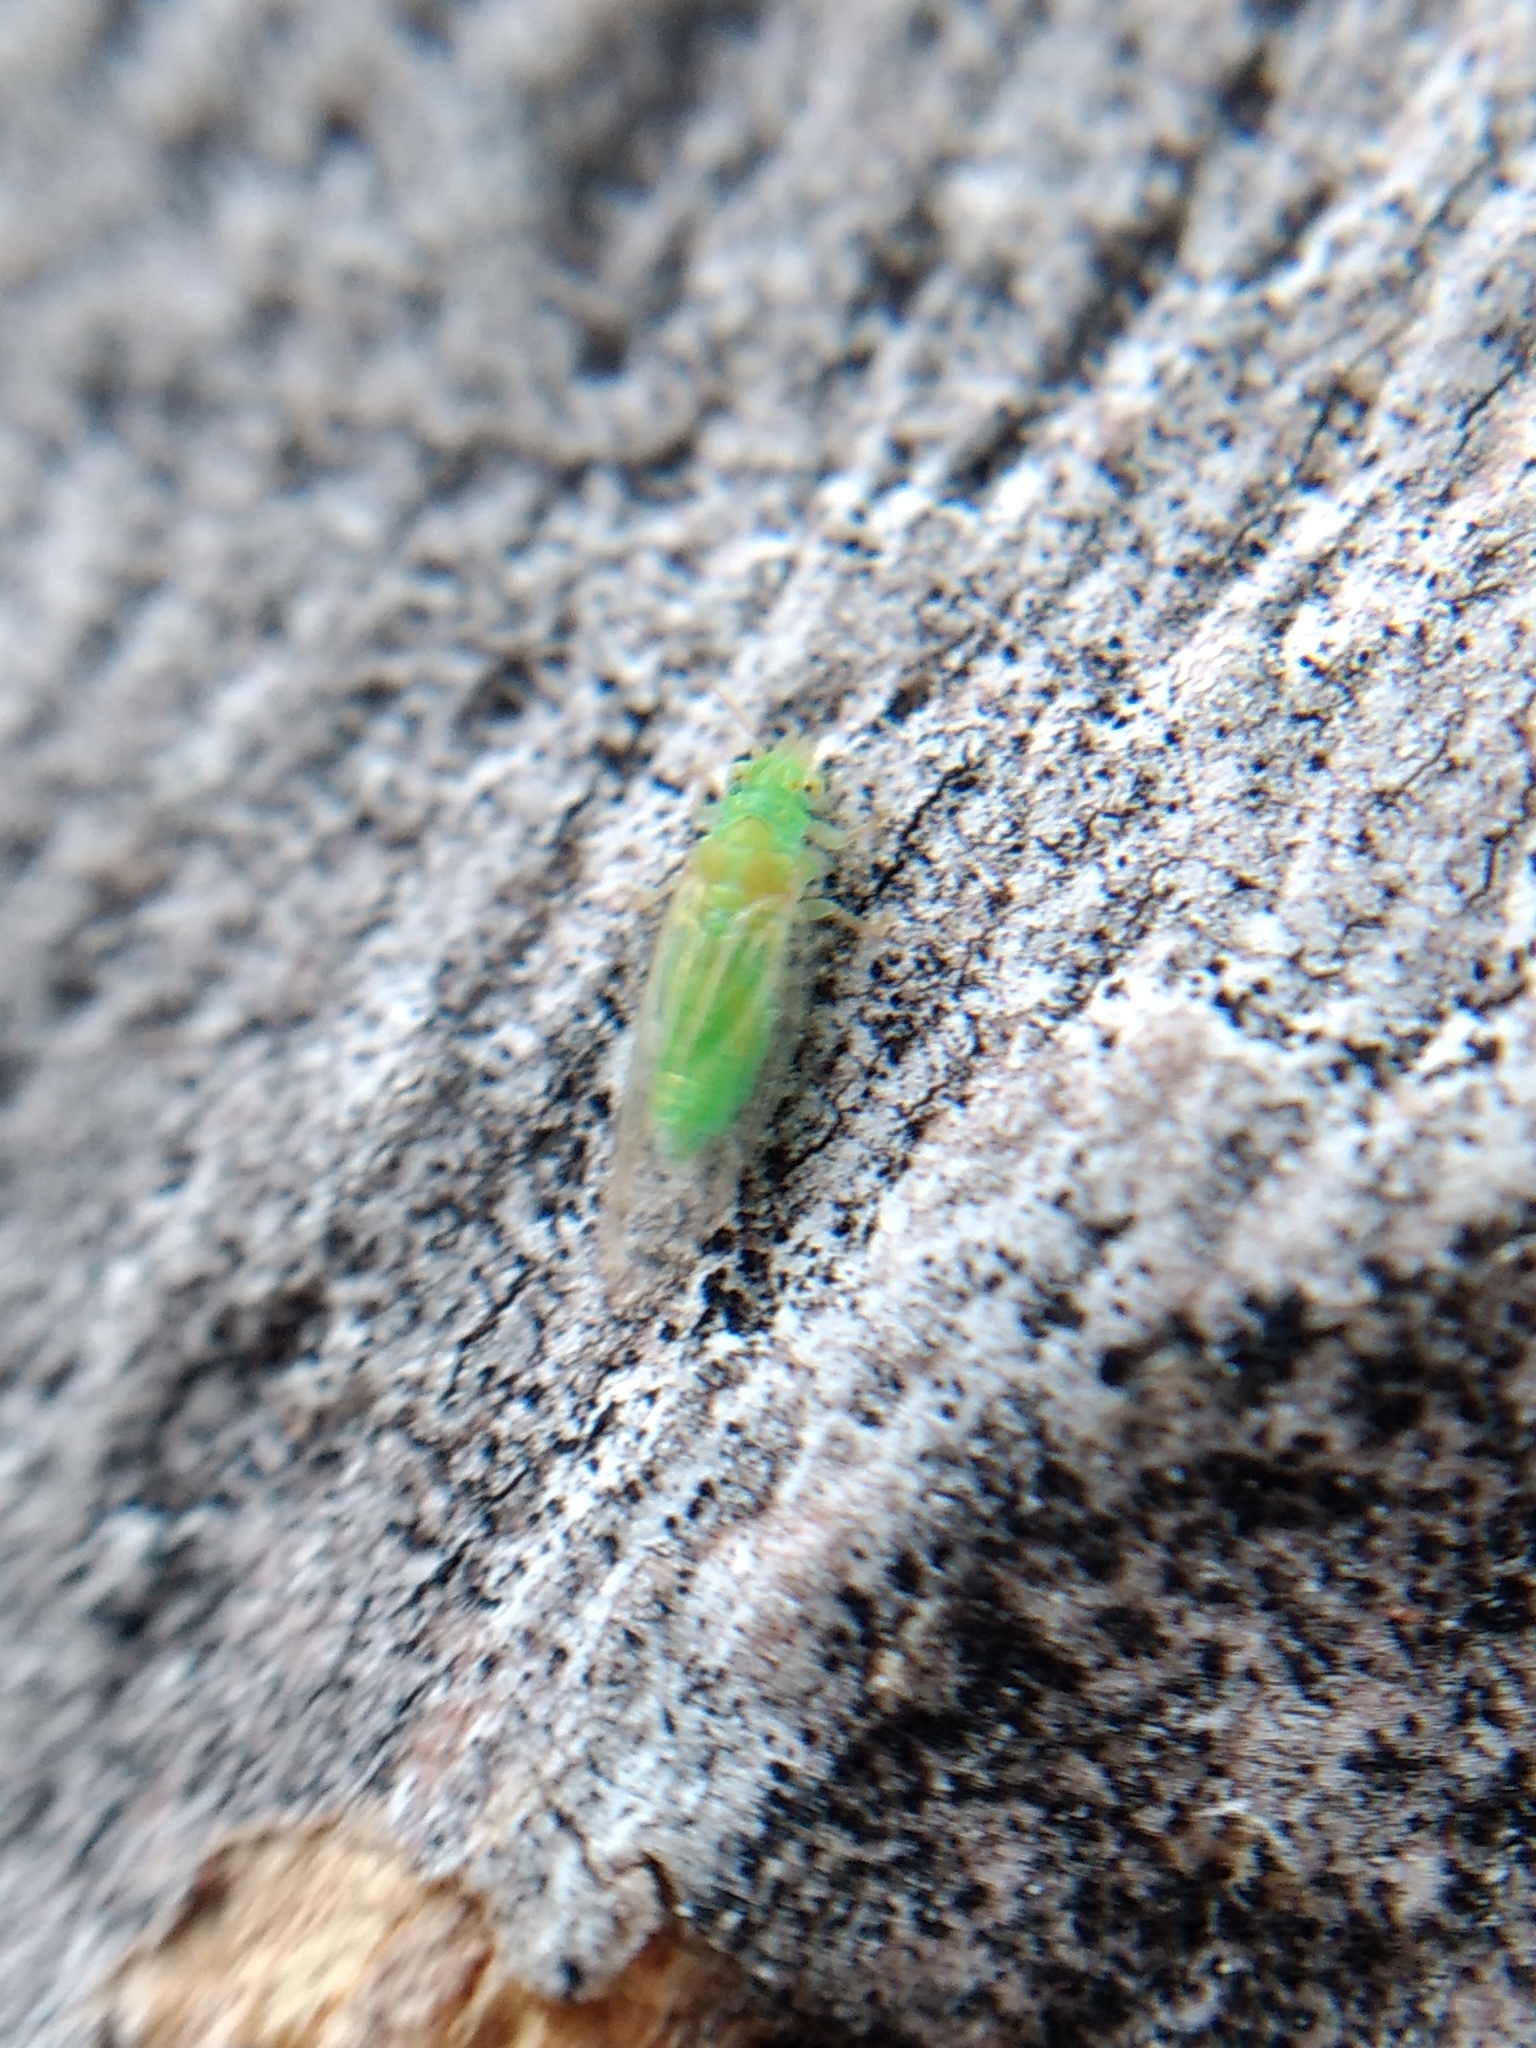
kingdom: Animalia
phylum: Arthropoda
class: Insecta
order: Hemiptera
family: Aphalaridae
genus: Glycaspis
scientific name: Glycaspis brimblecombei
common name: Red gum lerp psyllid
